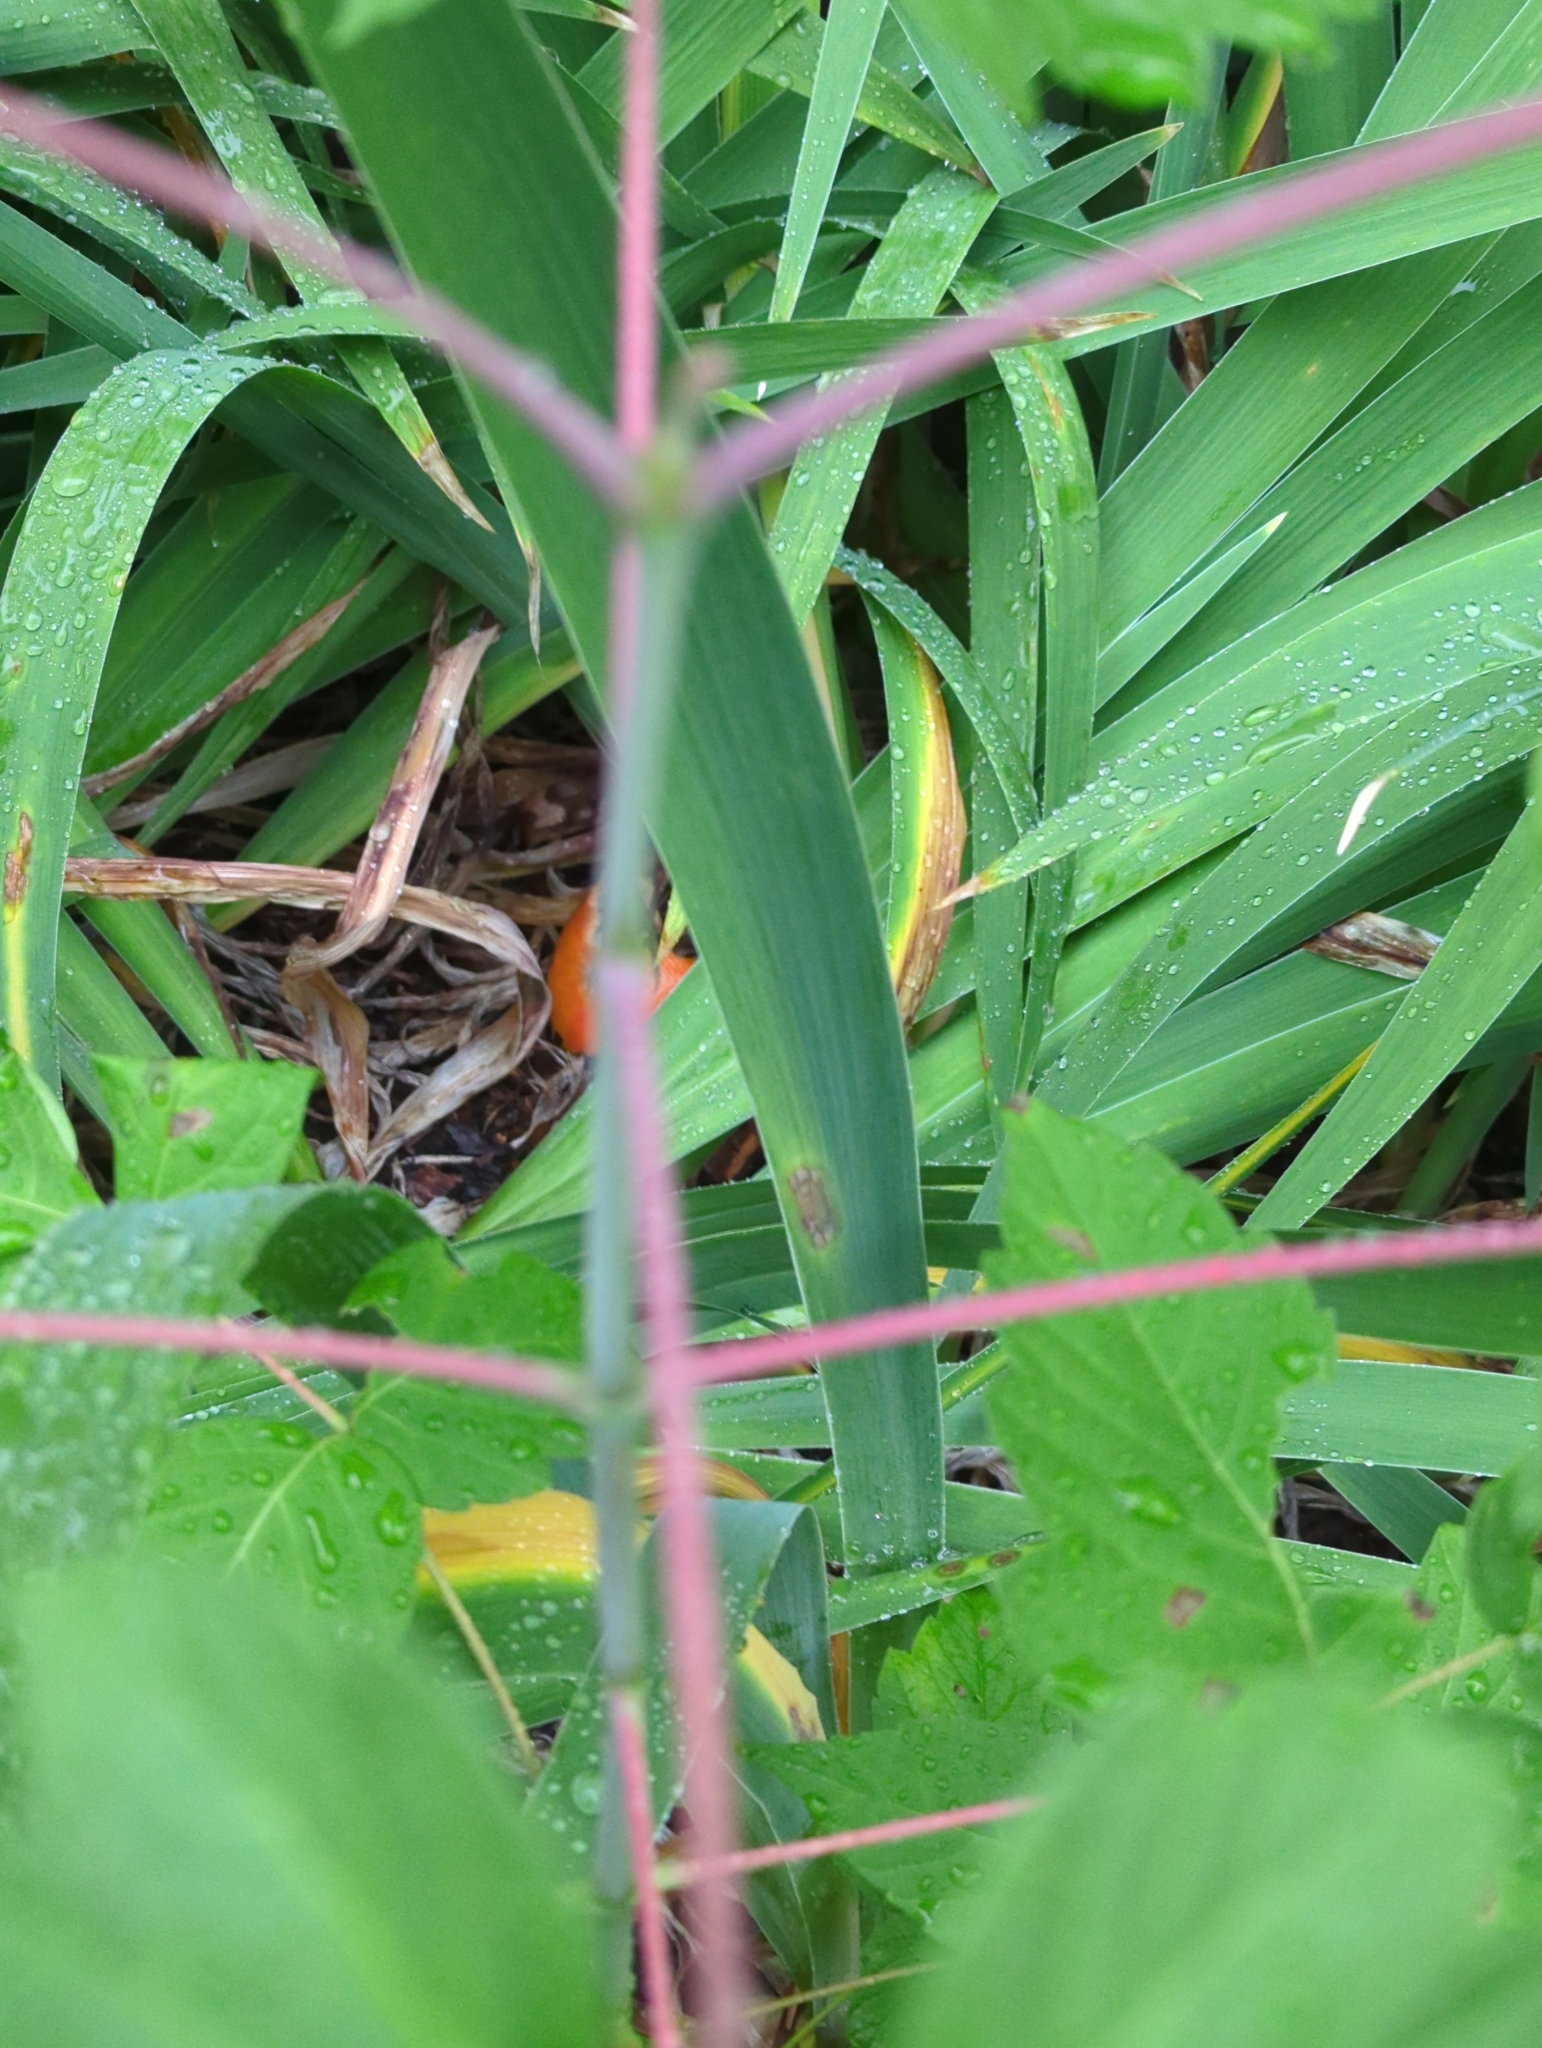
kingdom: Plantae
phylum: Tracheophyta
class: Magnoliopsida
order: Sapindales
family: Sapindaceae
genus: Acer
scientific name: Acer negundo
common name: Ashleaf maple
